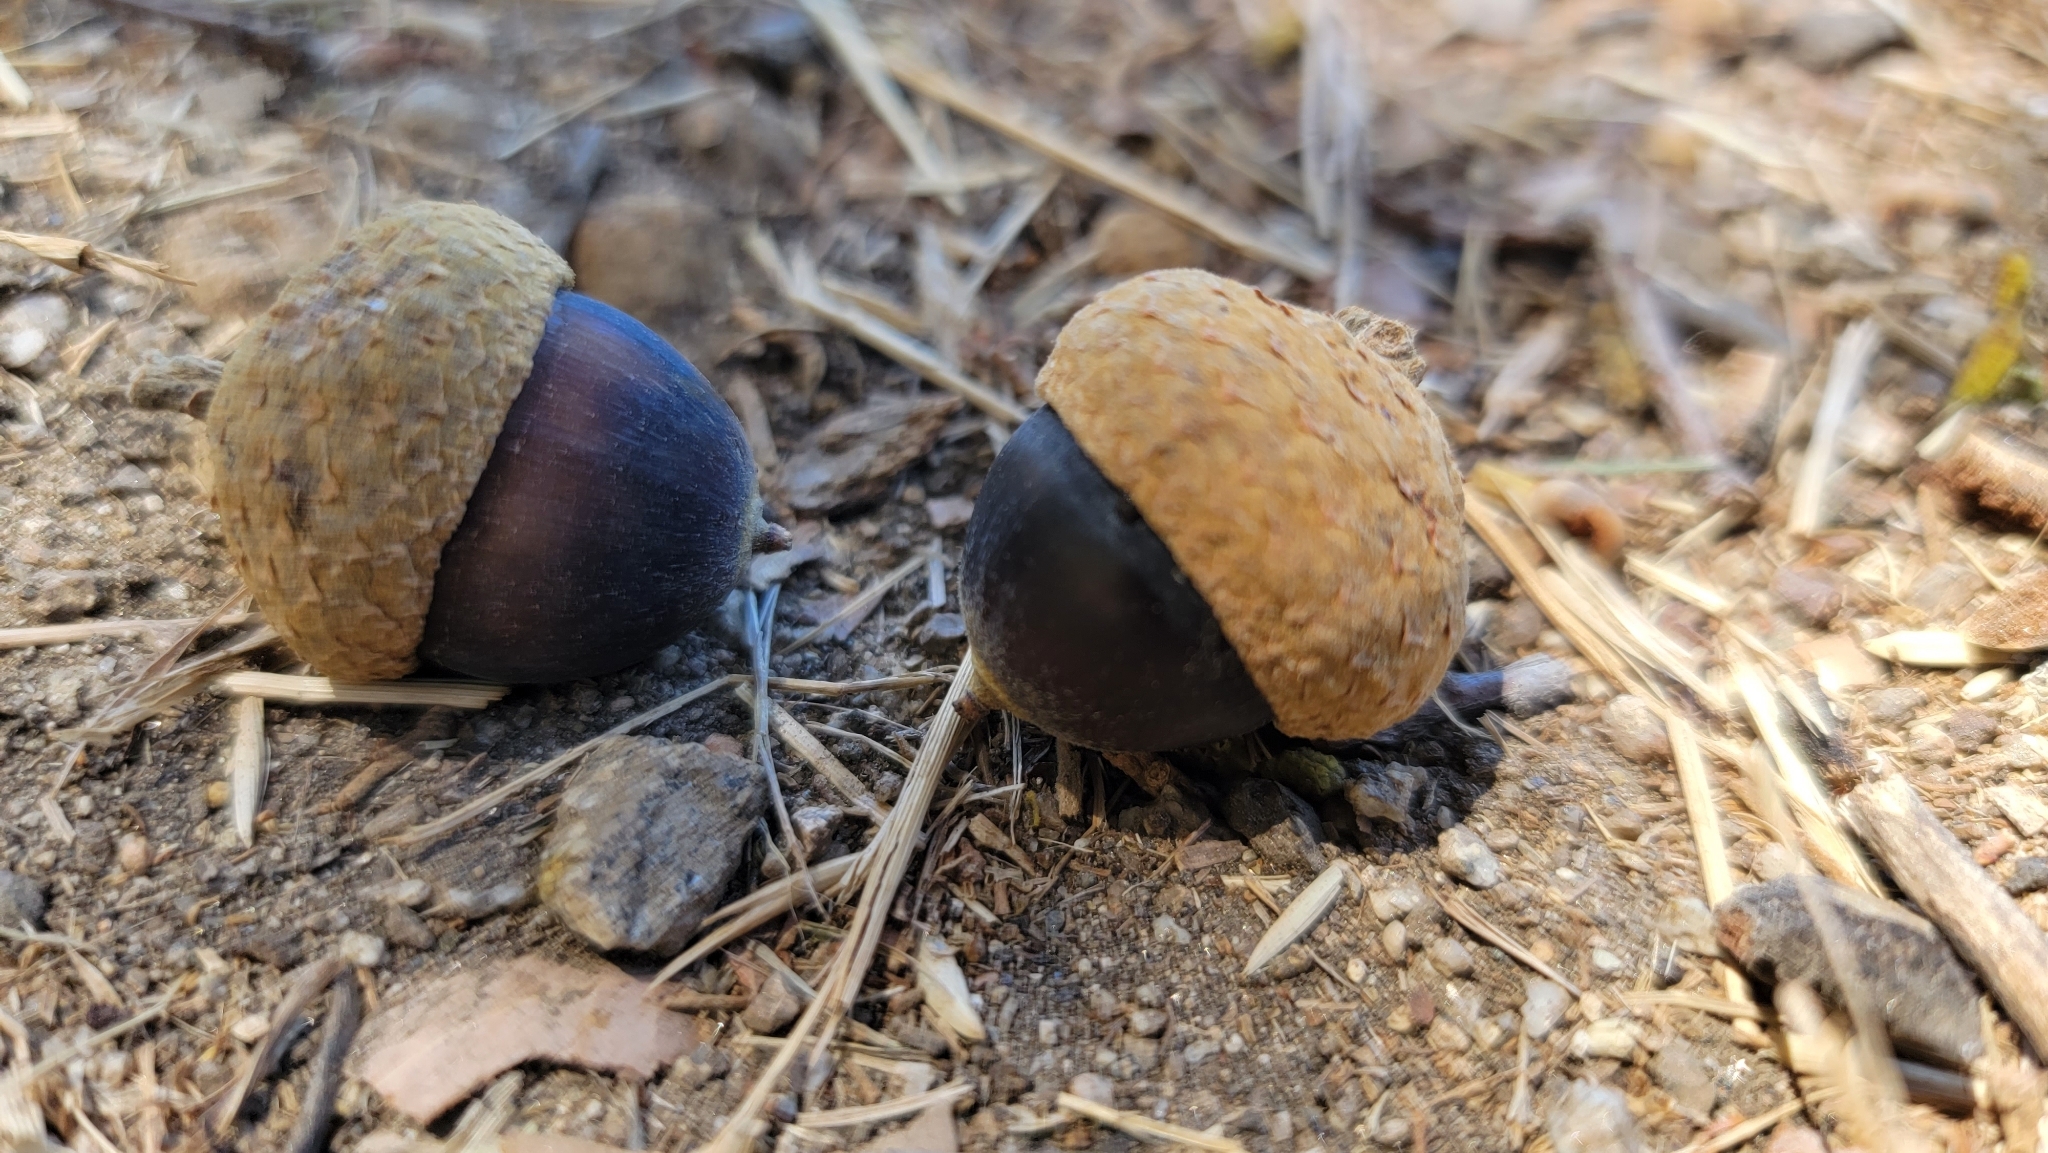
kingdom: Plantae
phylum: Tracheophyta
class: Magnoliopsida
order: Fagales
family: Fagaceae
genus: Quercus
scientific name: Quercus chrysolepis
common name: Canyon live oak
